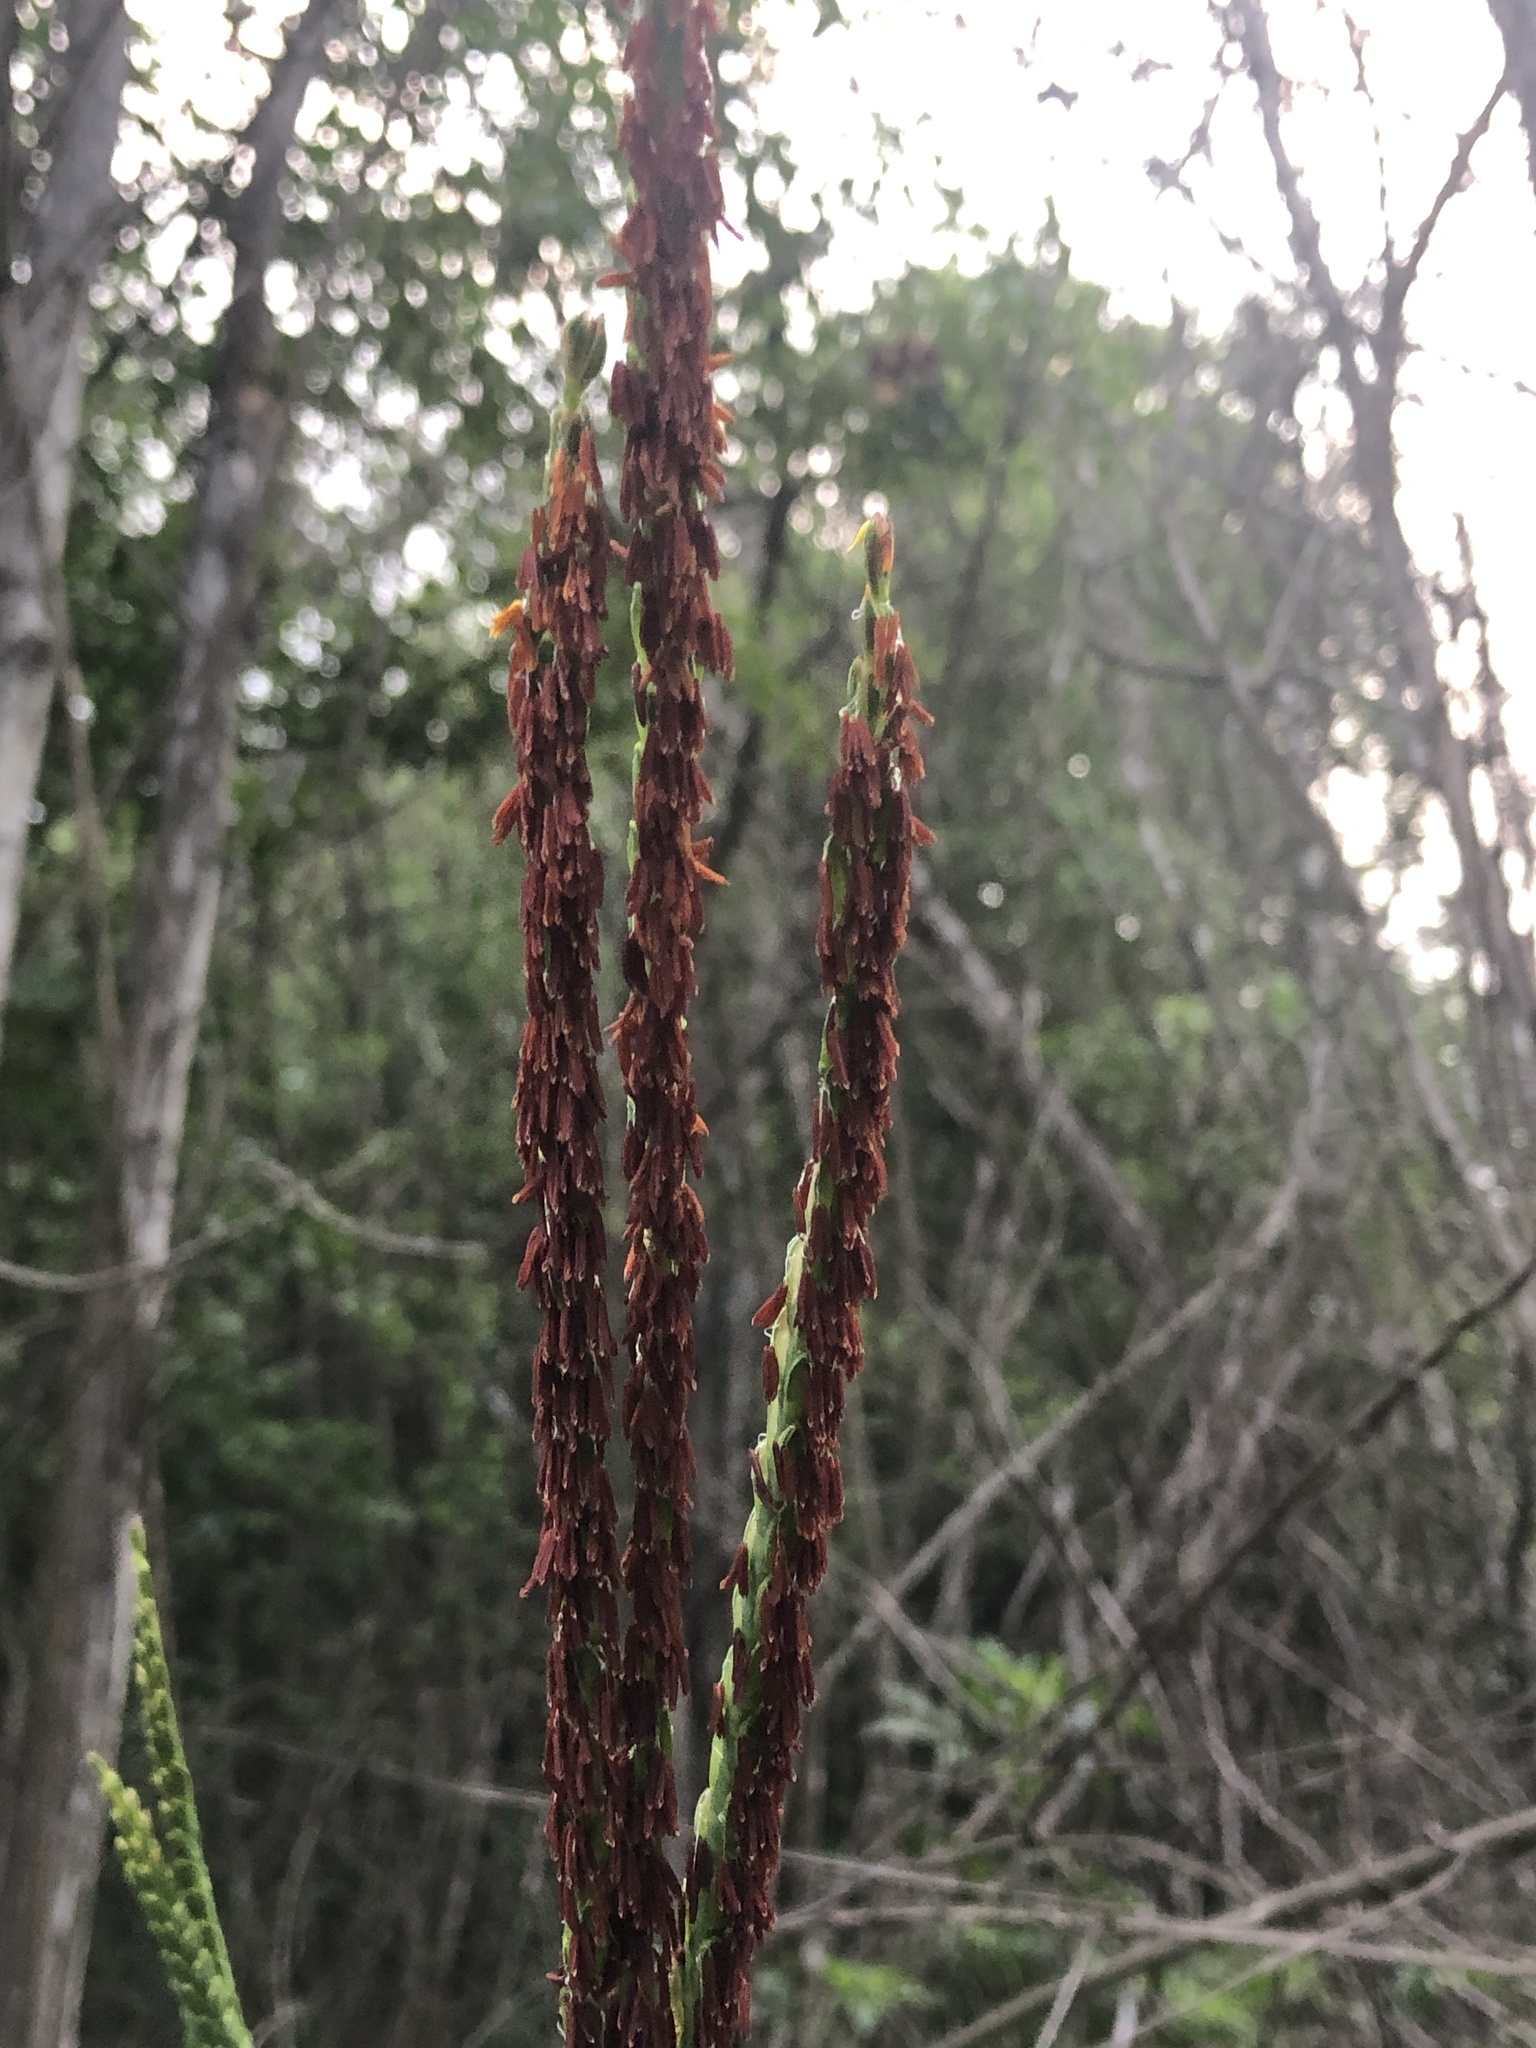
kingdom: Plantae
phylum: Tracheophyta
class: Liliopsida
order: Poales
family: Poaceae
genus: Tripsacum
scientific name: Tripsacum dactyloides
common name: Buffalo-grass
